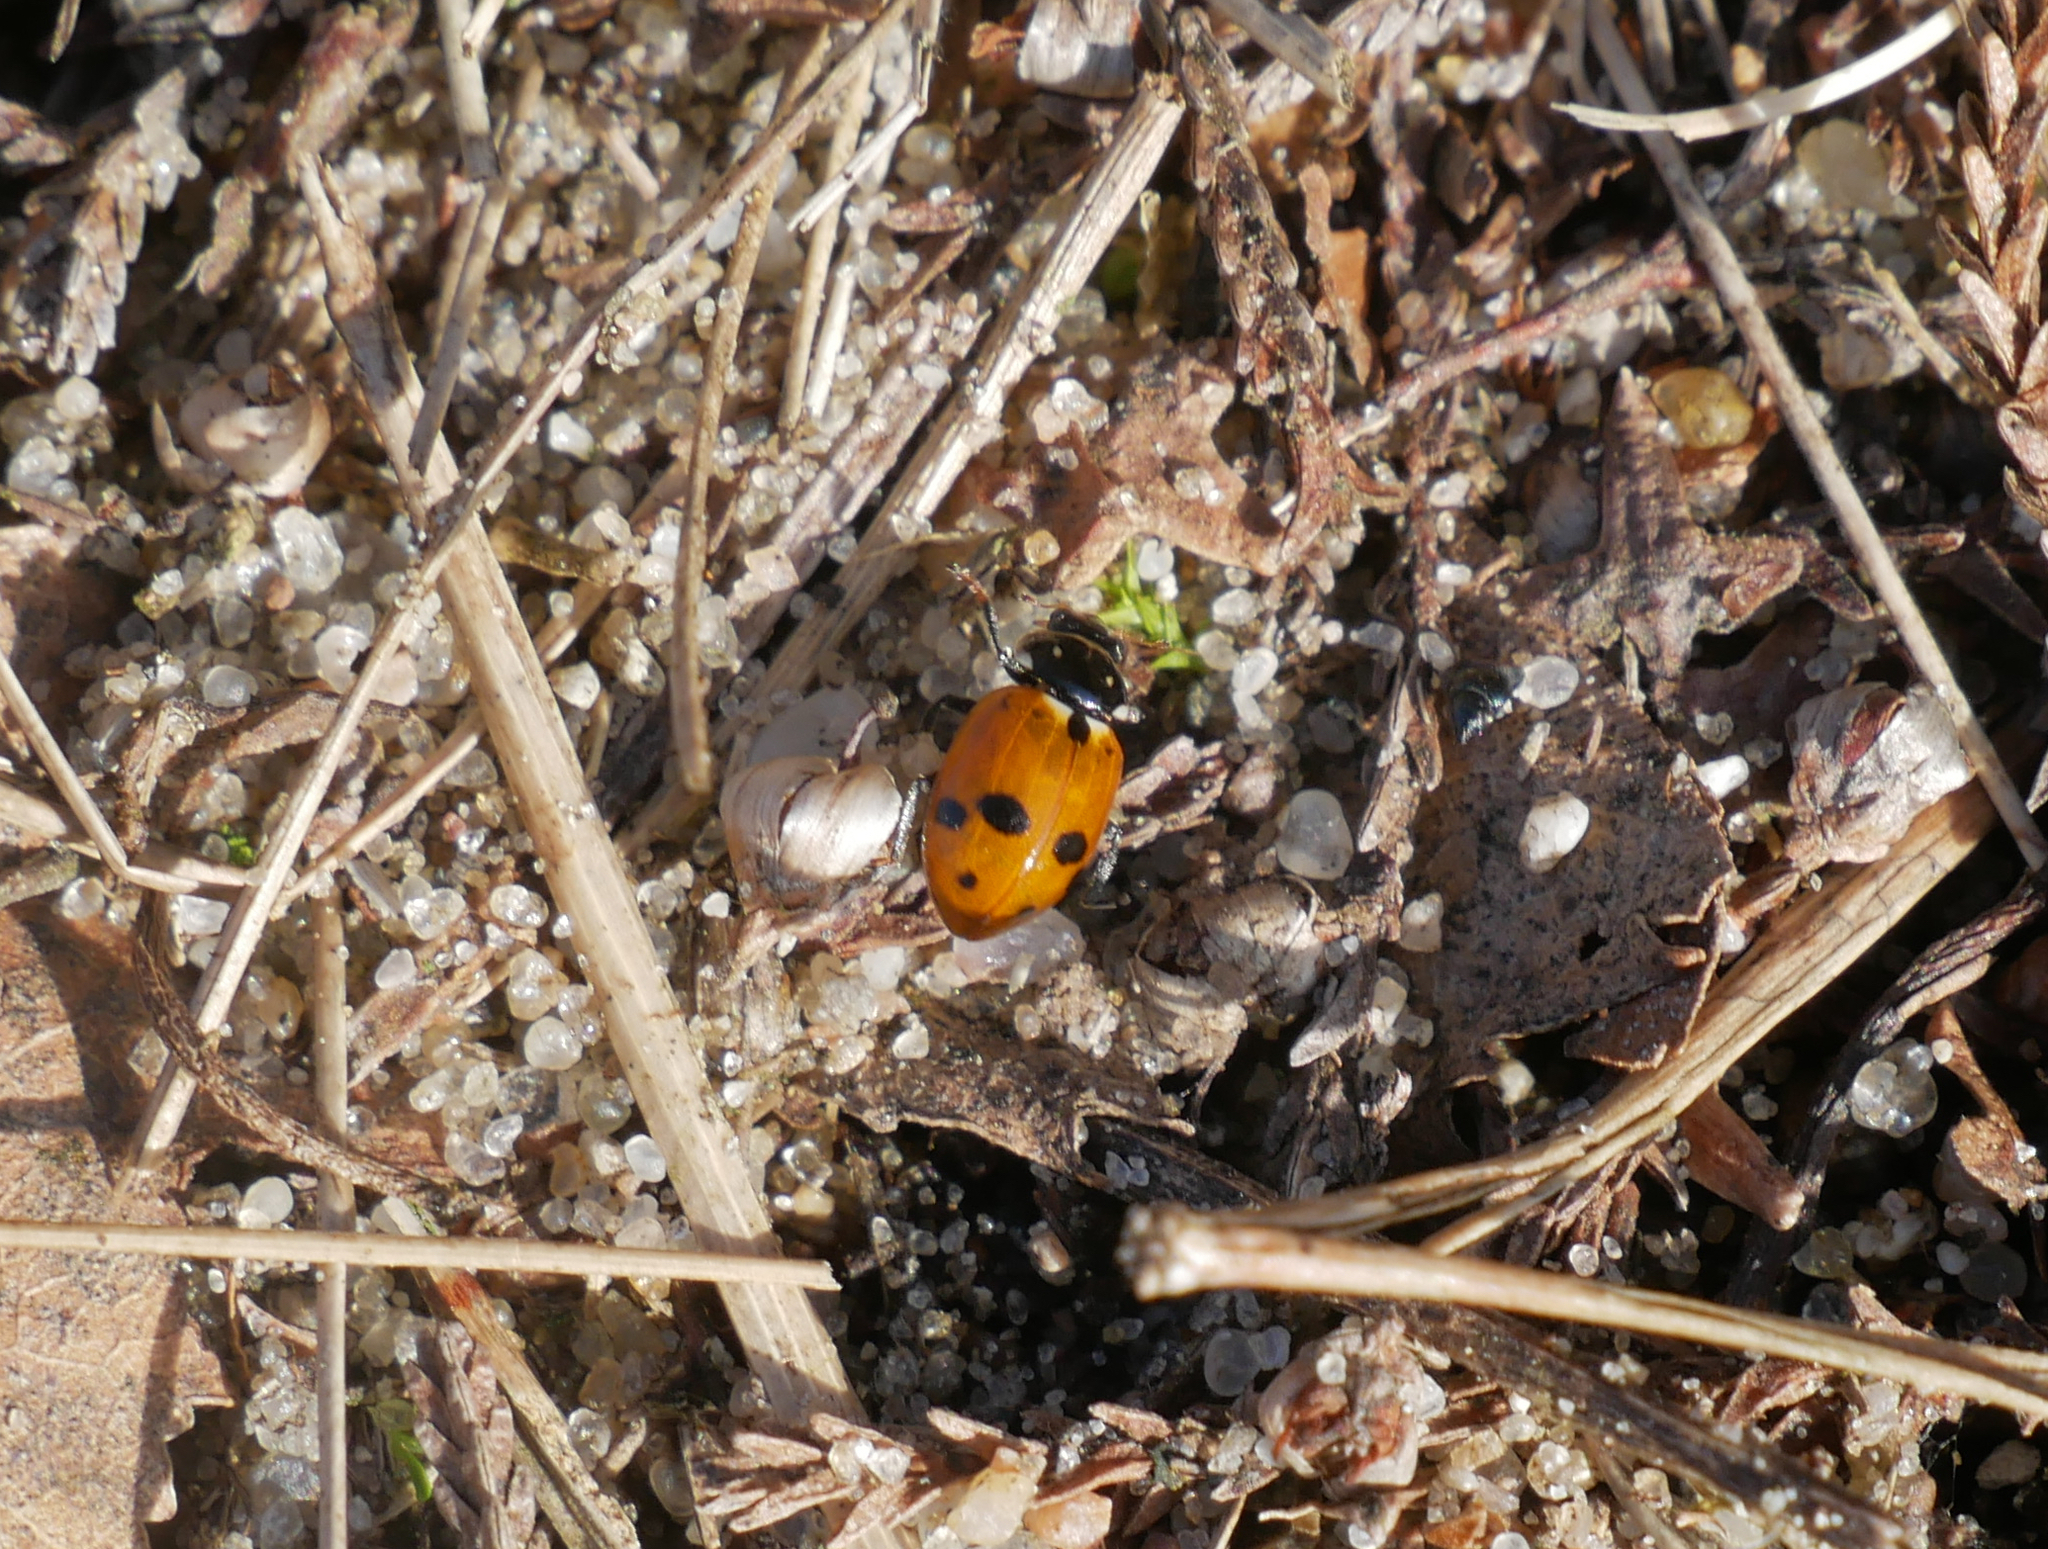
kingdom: Animalia
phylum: Arthropoda
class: Insecta
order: Coleoptera
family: Coccinellidae
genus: Hippodamia
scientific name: Hippodamia variegata
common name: Ladybird beetle
